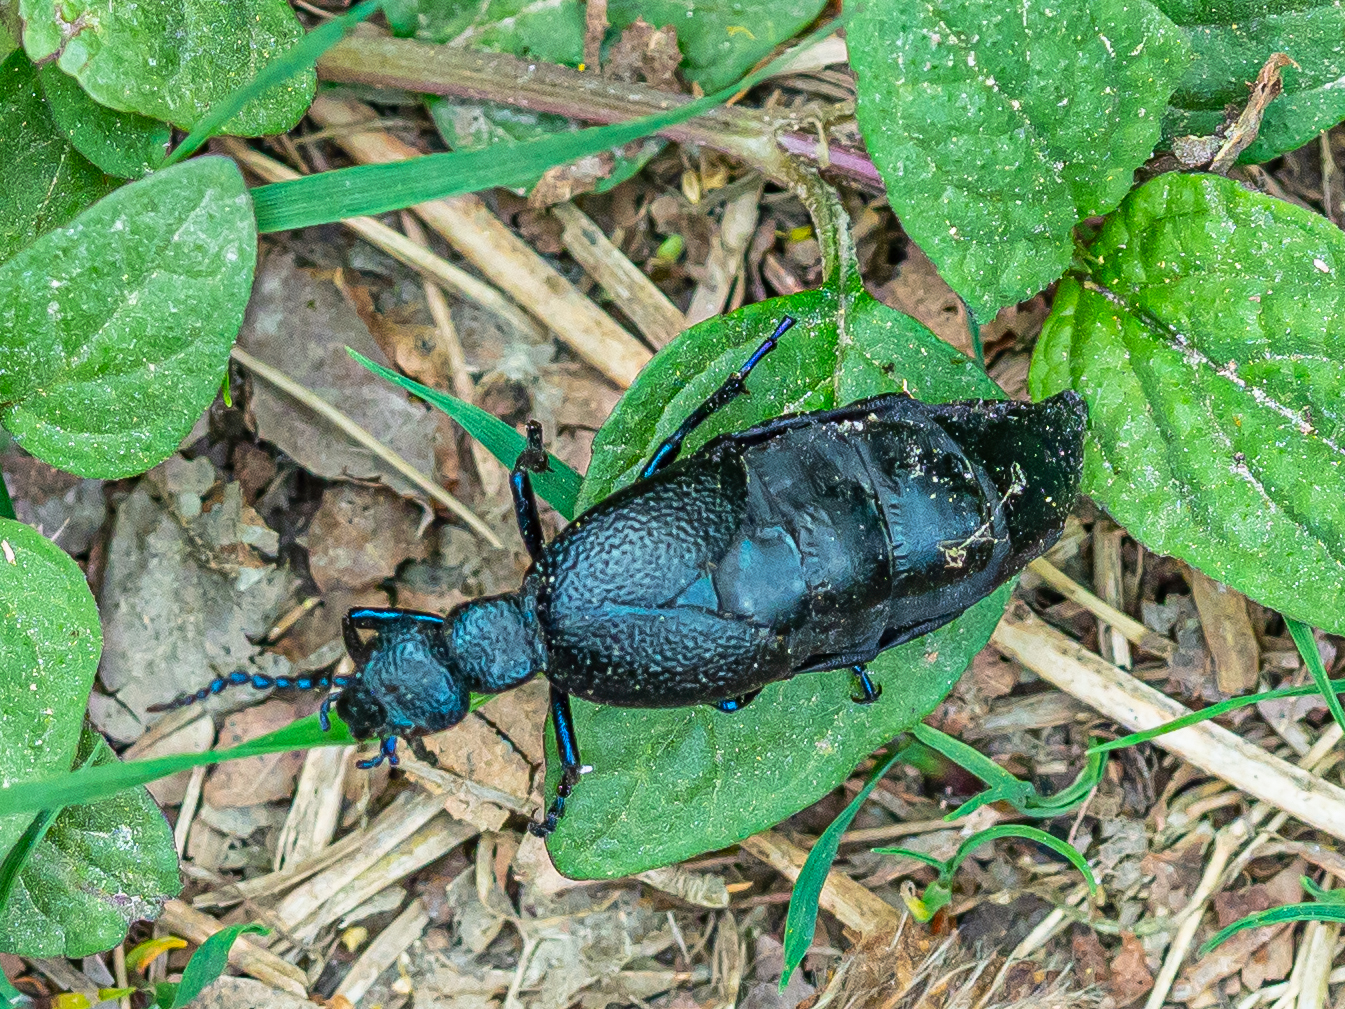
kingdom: Animalia
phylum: Arthropoda
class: Insecta
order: Coleoptera
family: Meloidae
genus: Meloe
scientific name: Meloe proscarabaeus
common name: Black oil-beetle
